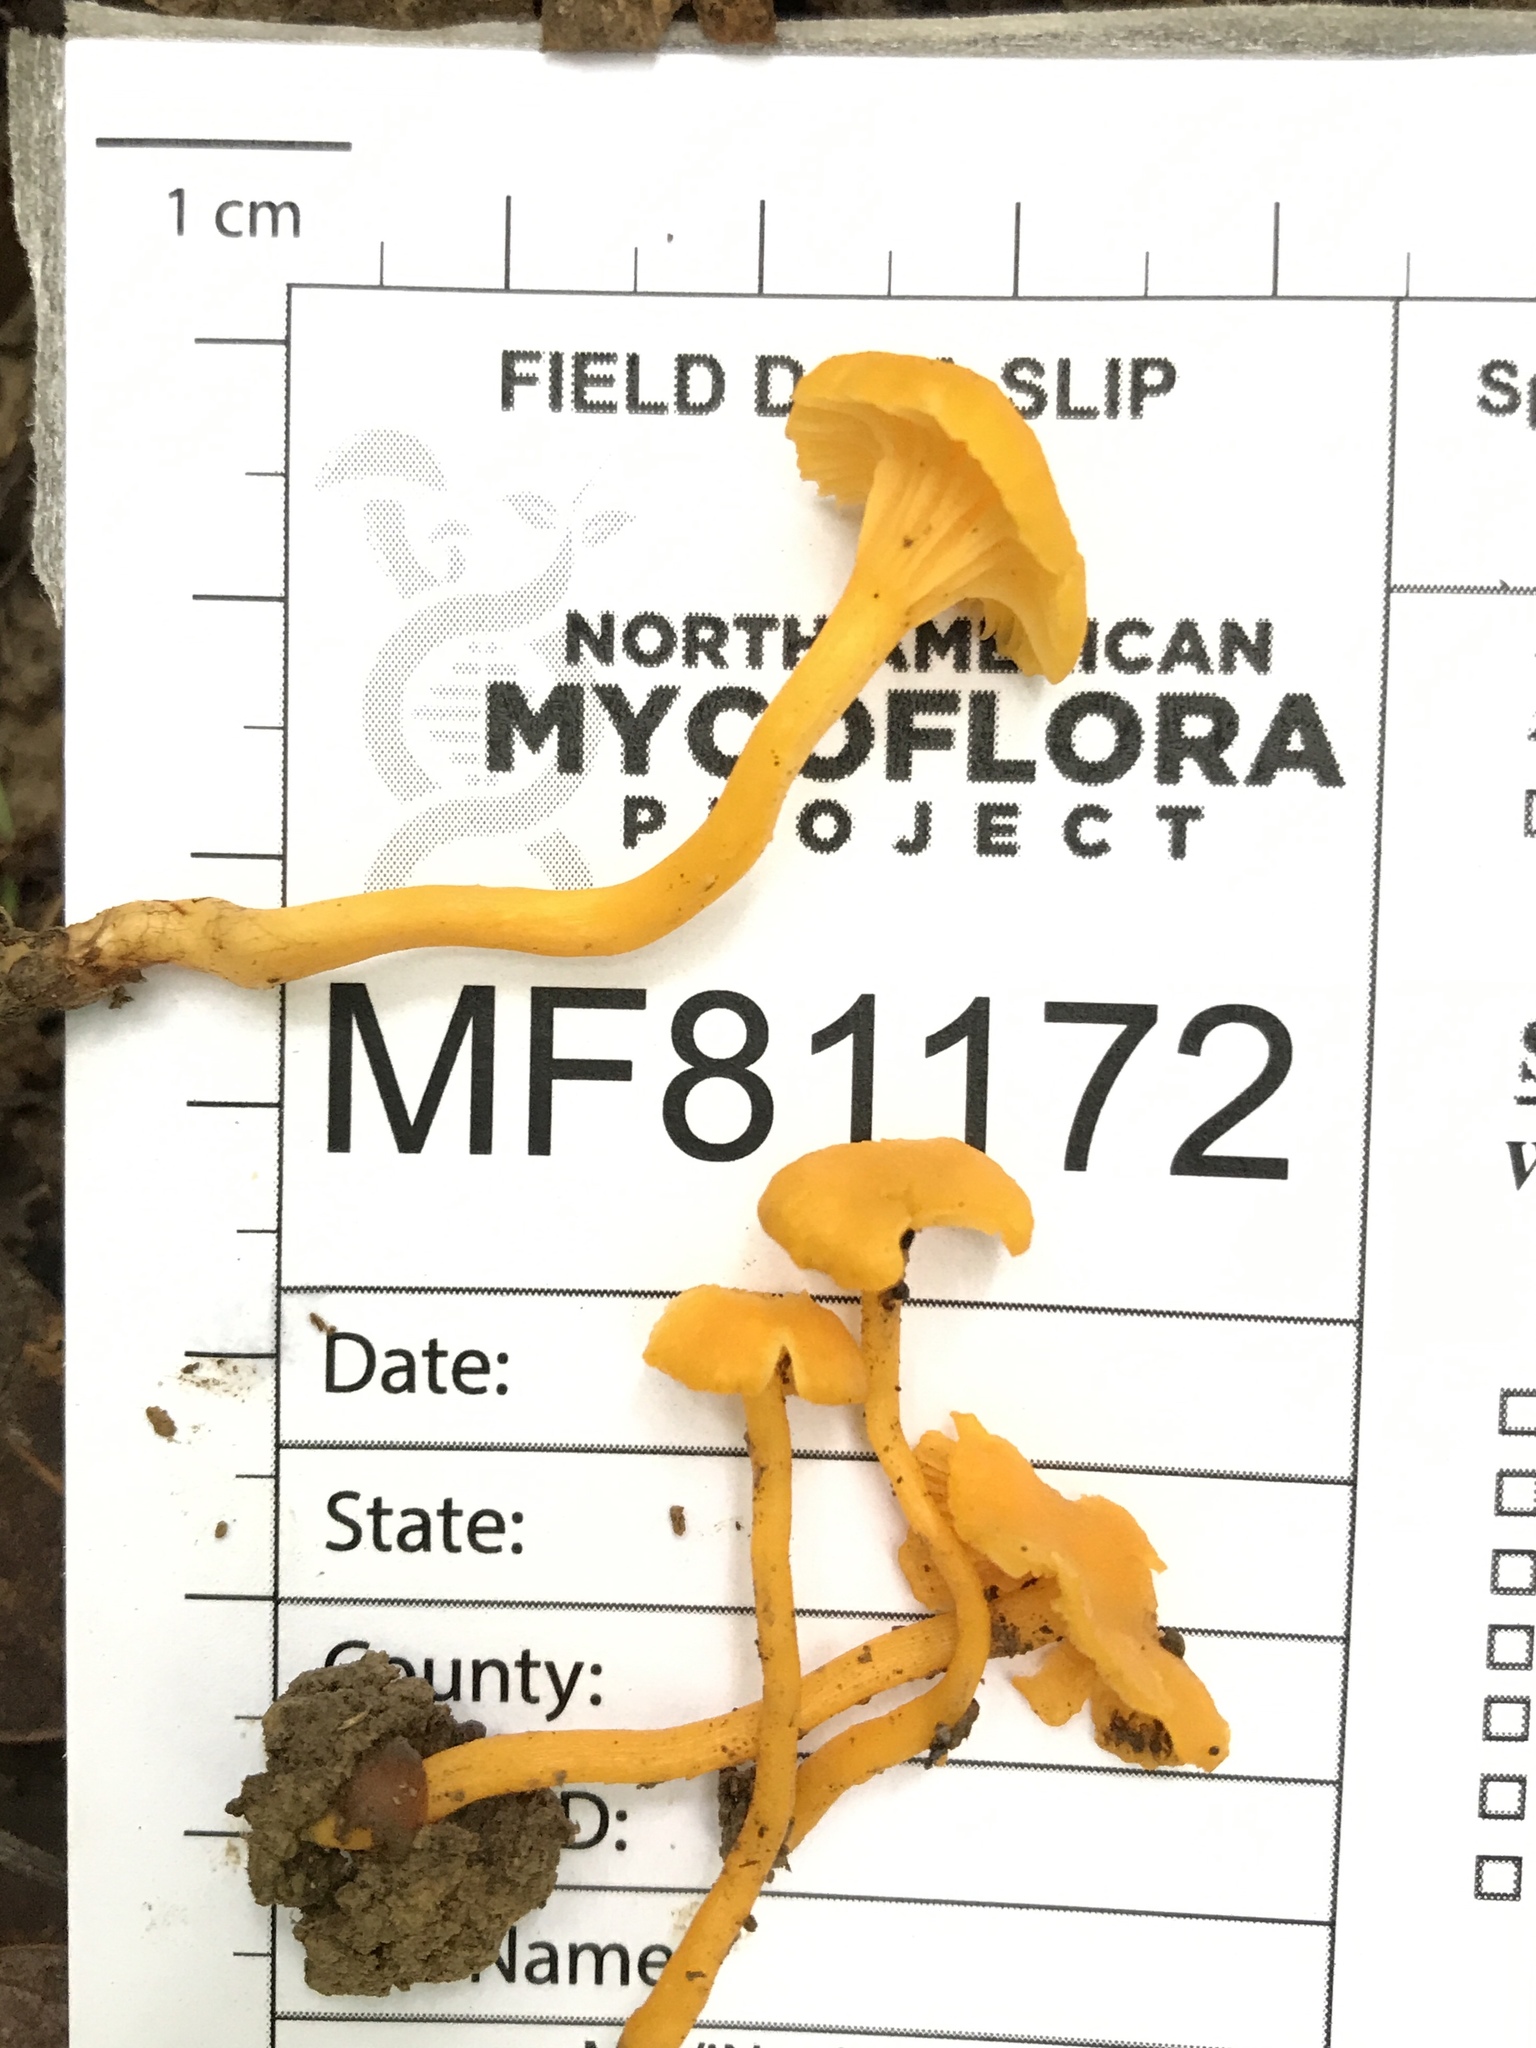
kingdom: Fungi
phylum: Basidiomycota
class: Agaricomycetes
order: Cantharellales
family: Hydnaceae
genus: Cantharellus
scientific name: Cantharellus minor
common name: Small chanterelle
